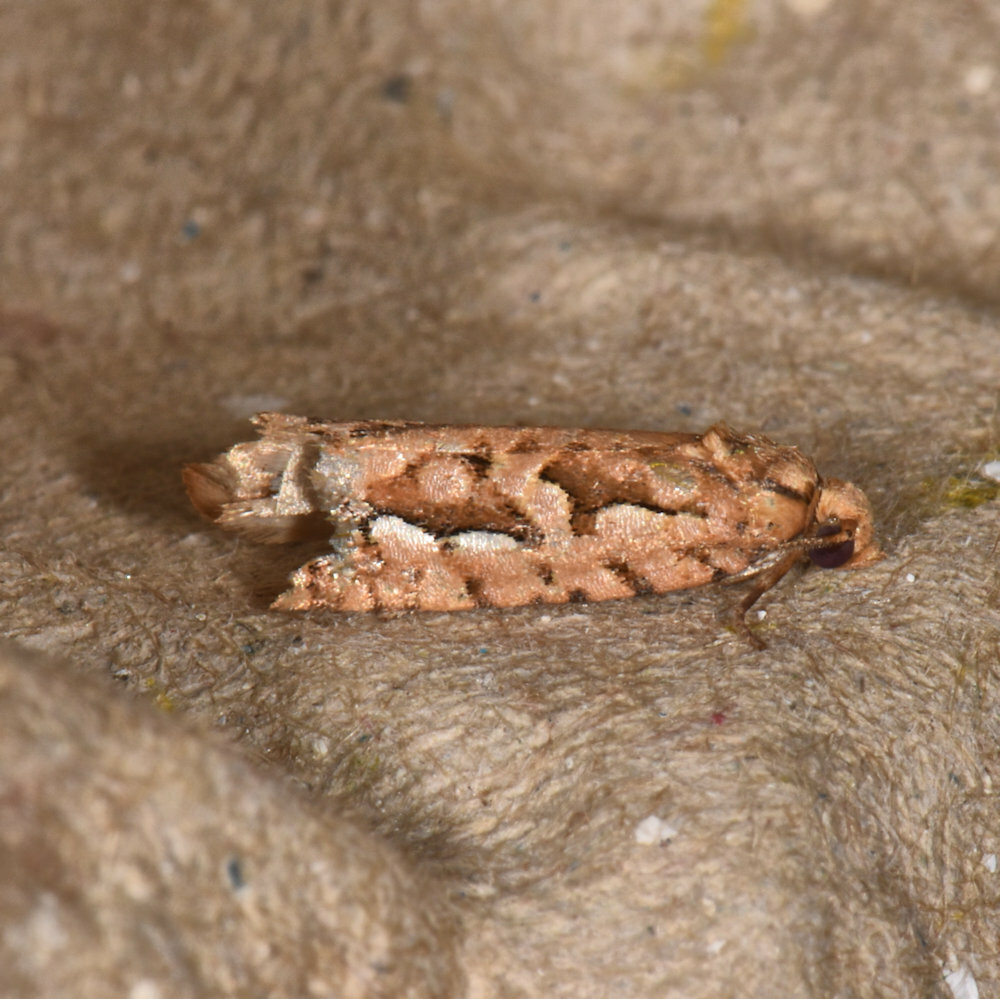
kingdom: Animalia
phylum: Arthropoda
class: Insecta
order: Lepidoptera
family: Tortricidae
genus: Diedra
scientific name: Diedra cockerellana
